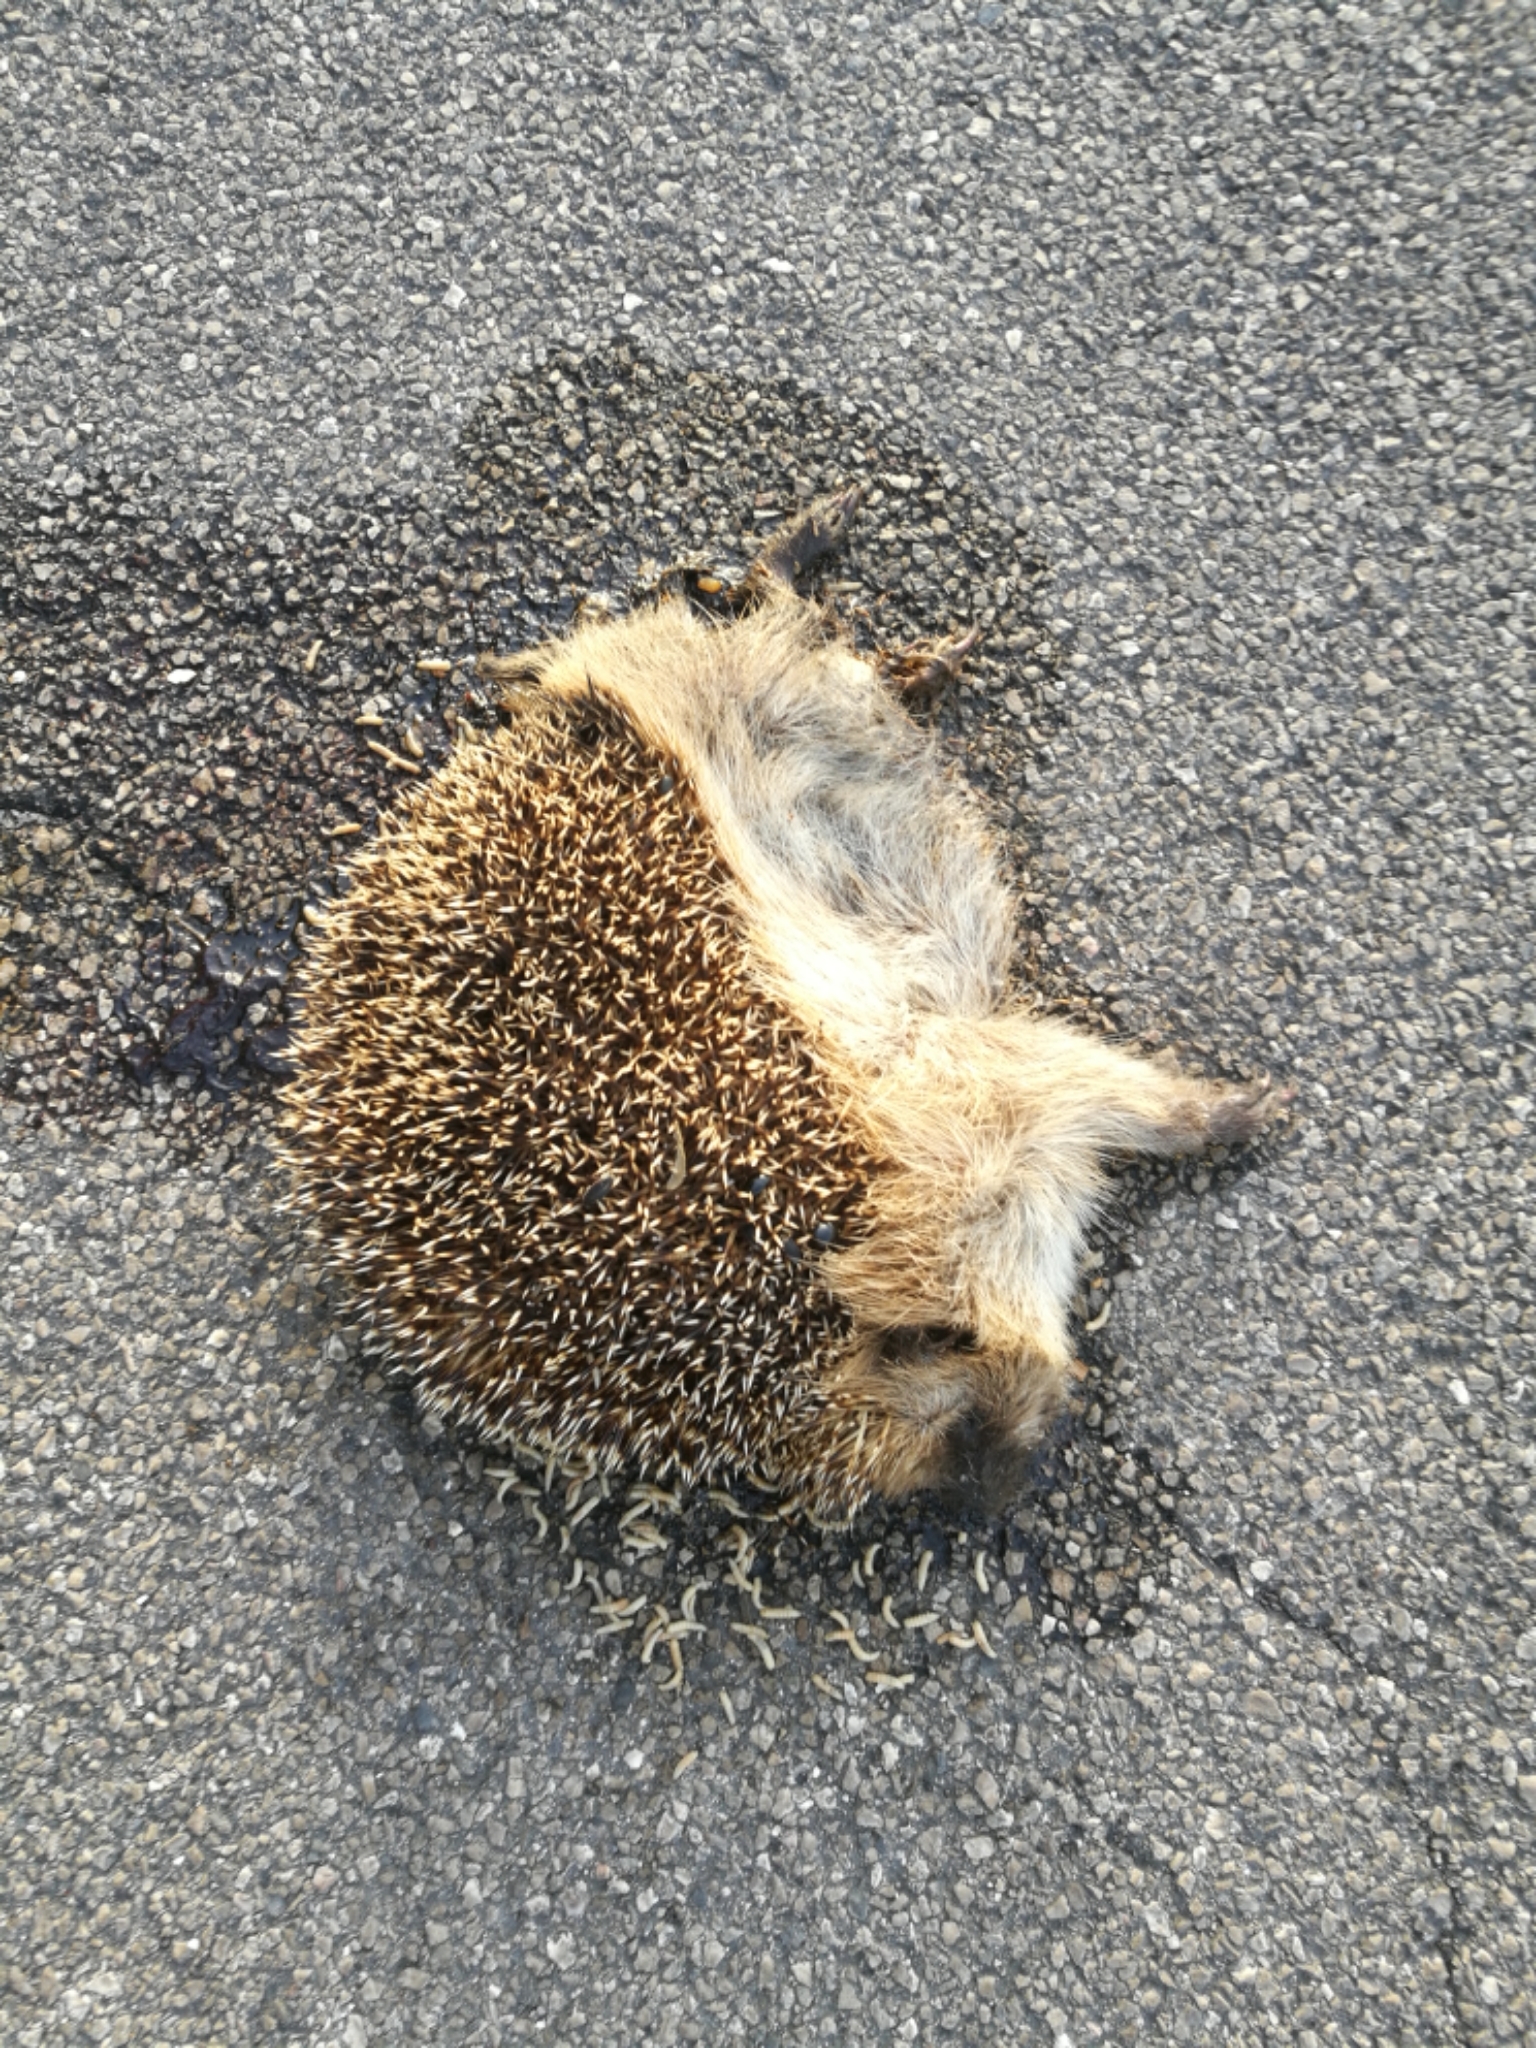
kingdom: Animalia
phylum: Chordata
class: Mammalia
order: Erinaceomorpha
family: Erinaceidae
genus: Erinaceus
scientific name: Erinaceus europaeus
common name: West european hedgehog
